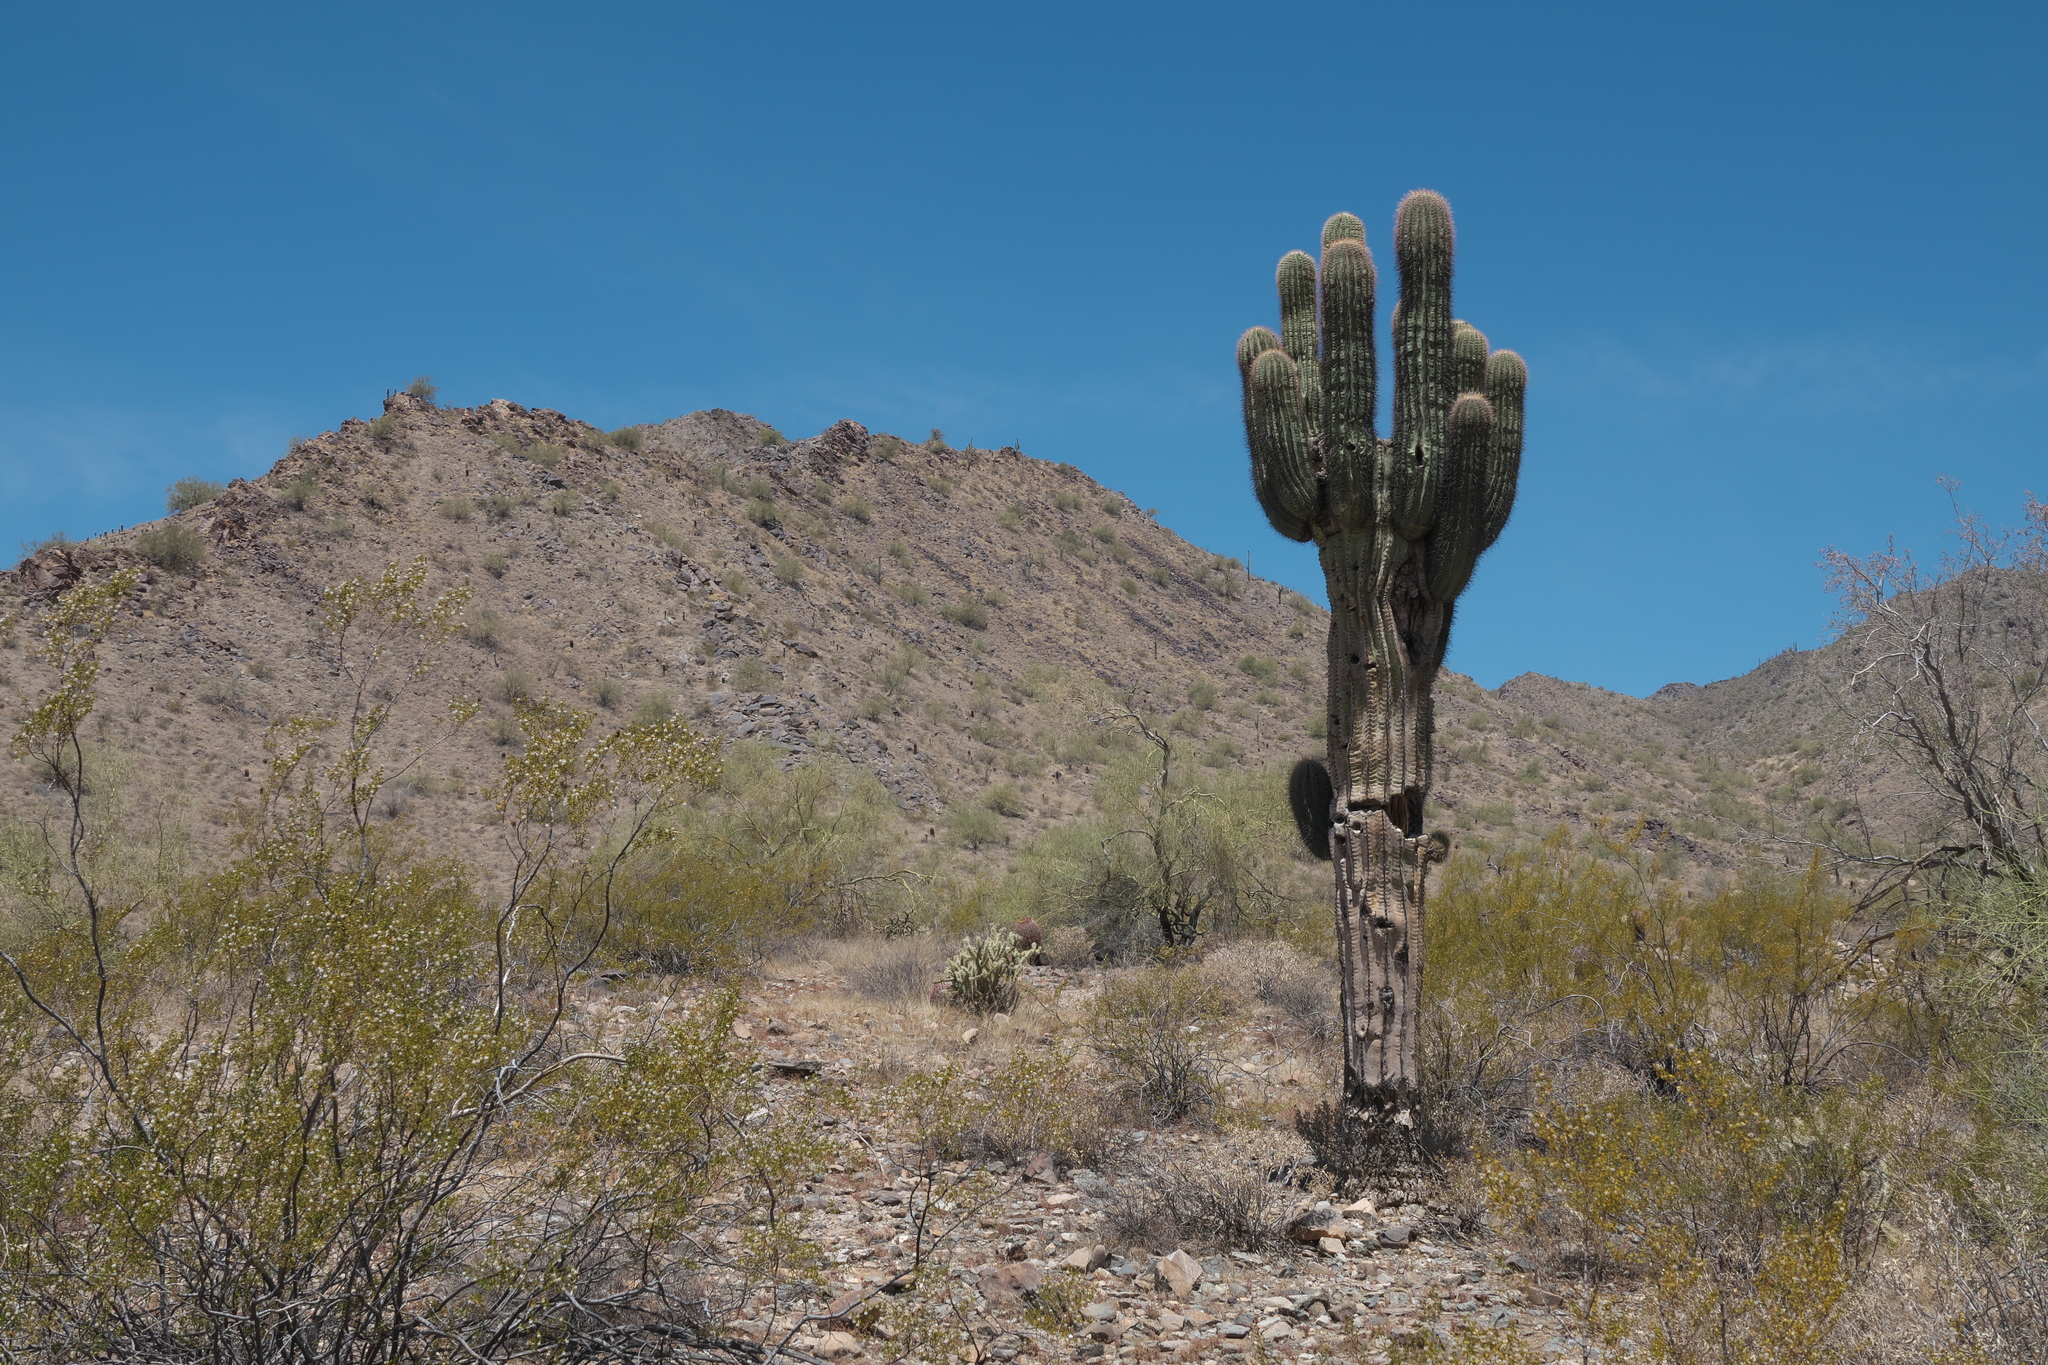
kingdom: Plantae
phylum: Tracheophyta
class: Magnoliopsida
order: Caryophyllales
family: Cactaceae
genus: Carnegiea
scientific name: Carnegiea gigantea
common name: Saguaro
